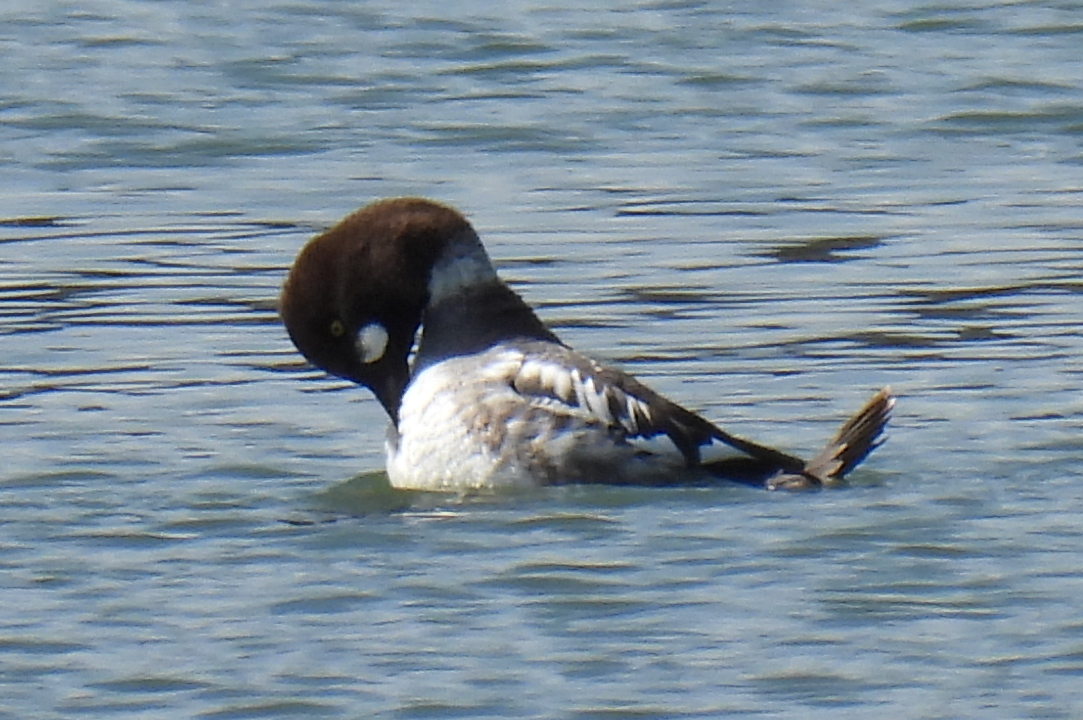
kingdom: Animalia
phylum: Chordata
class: Aves
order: Anseriformes
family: Anatidae
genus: Bucephala
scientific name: Bucephala clangula
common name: Common goldeneye
